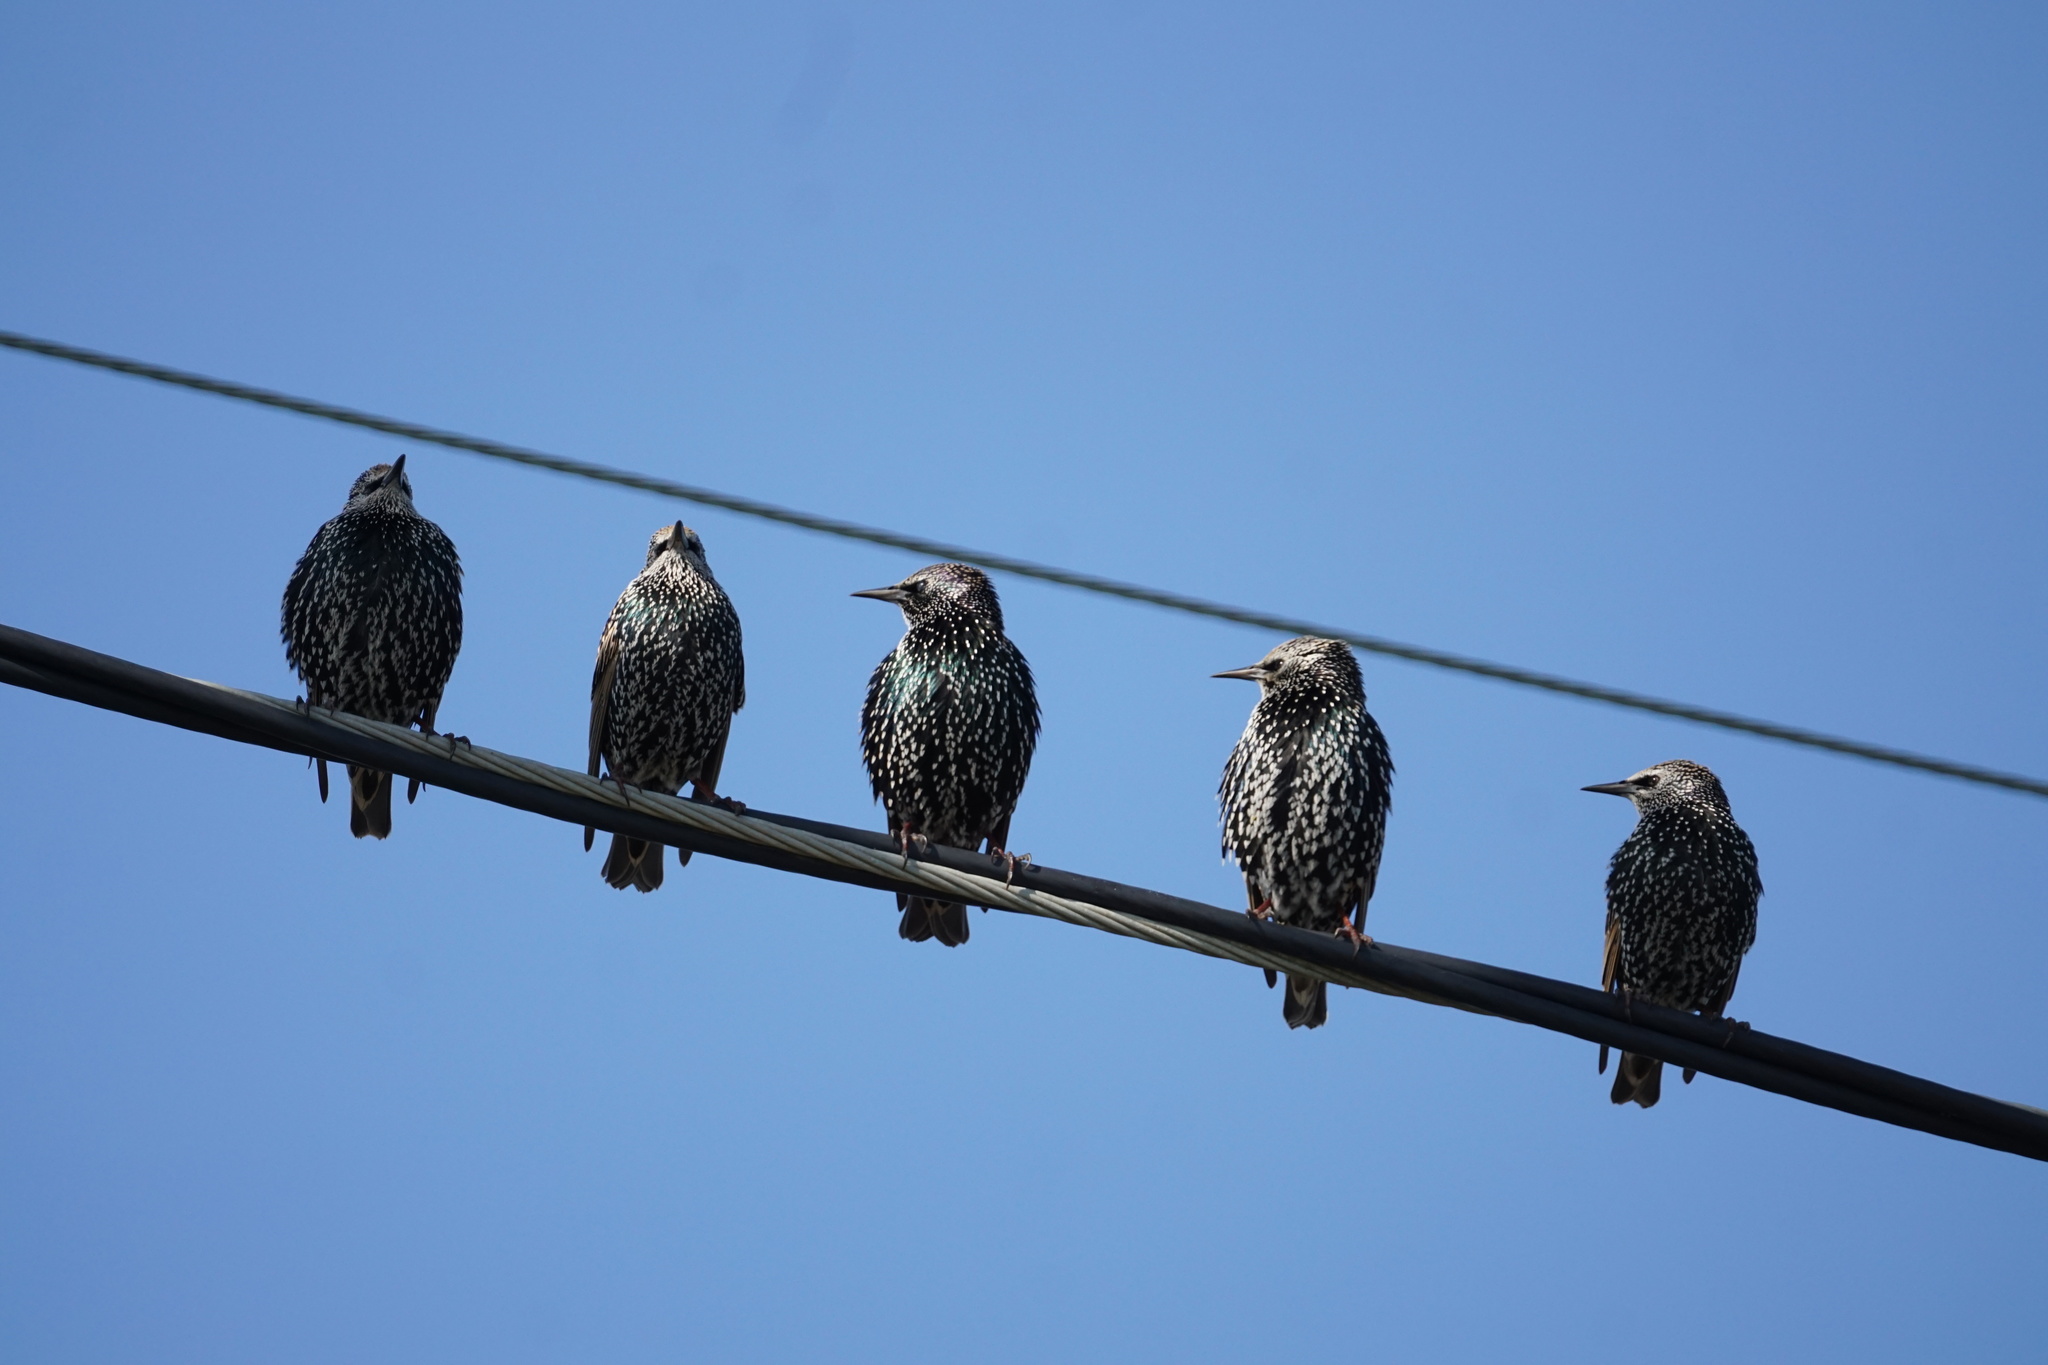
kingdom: Animalia
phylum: Chordata
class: Aves
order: Passeriformes
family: Sturnidae
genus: Sturnus
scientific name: Sturnus vulgaris
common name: Common starling
